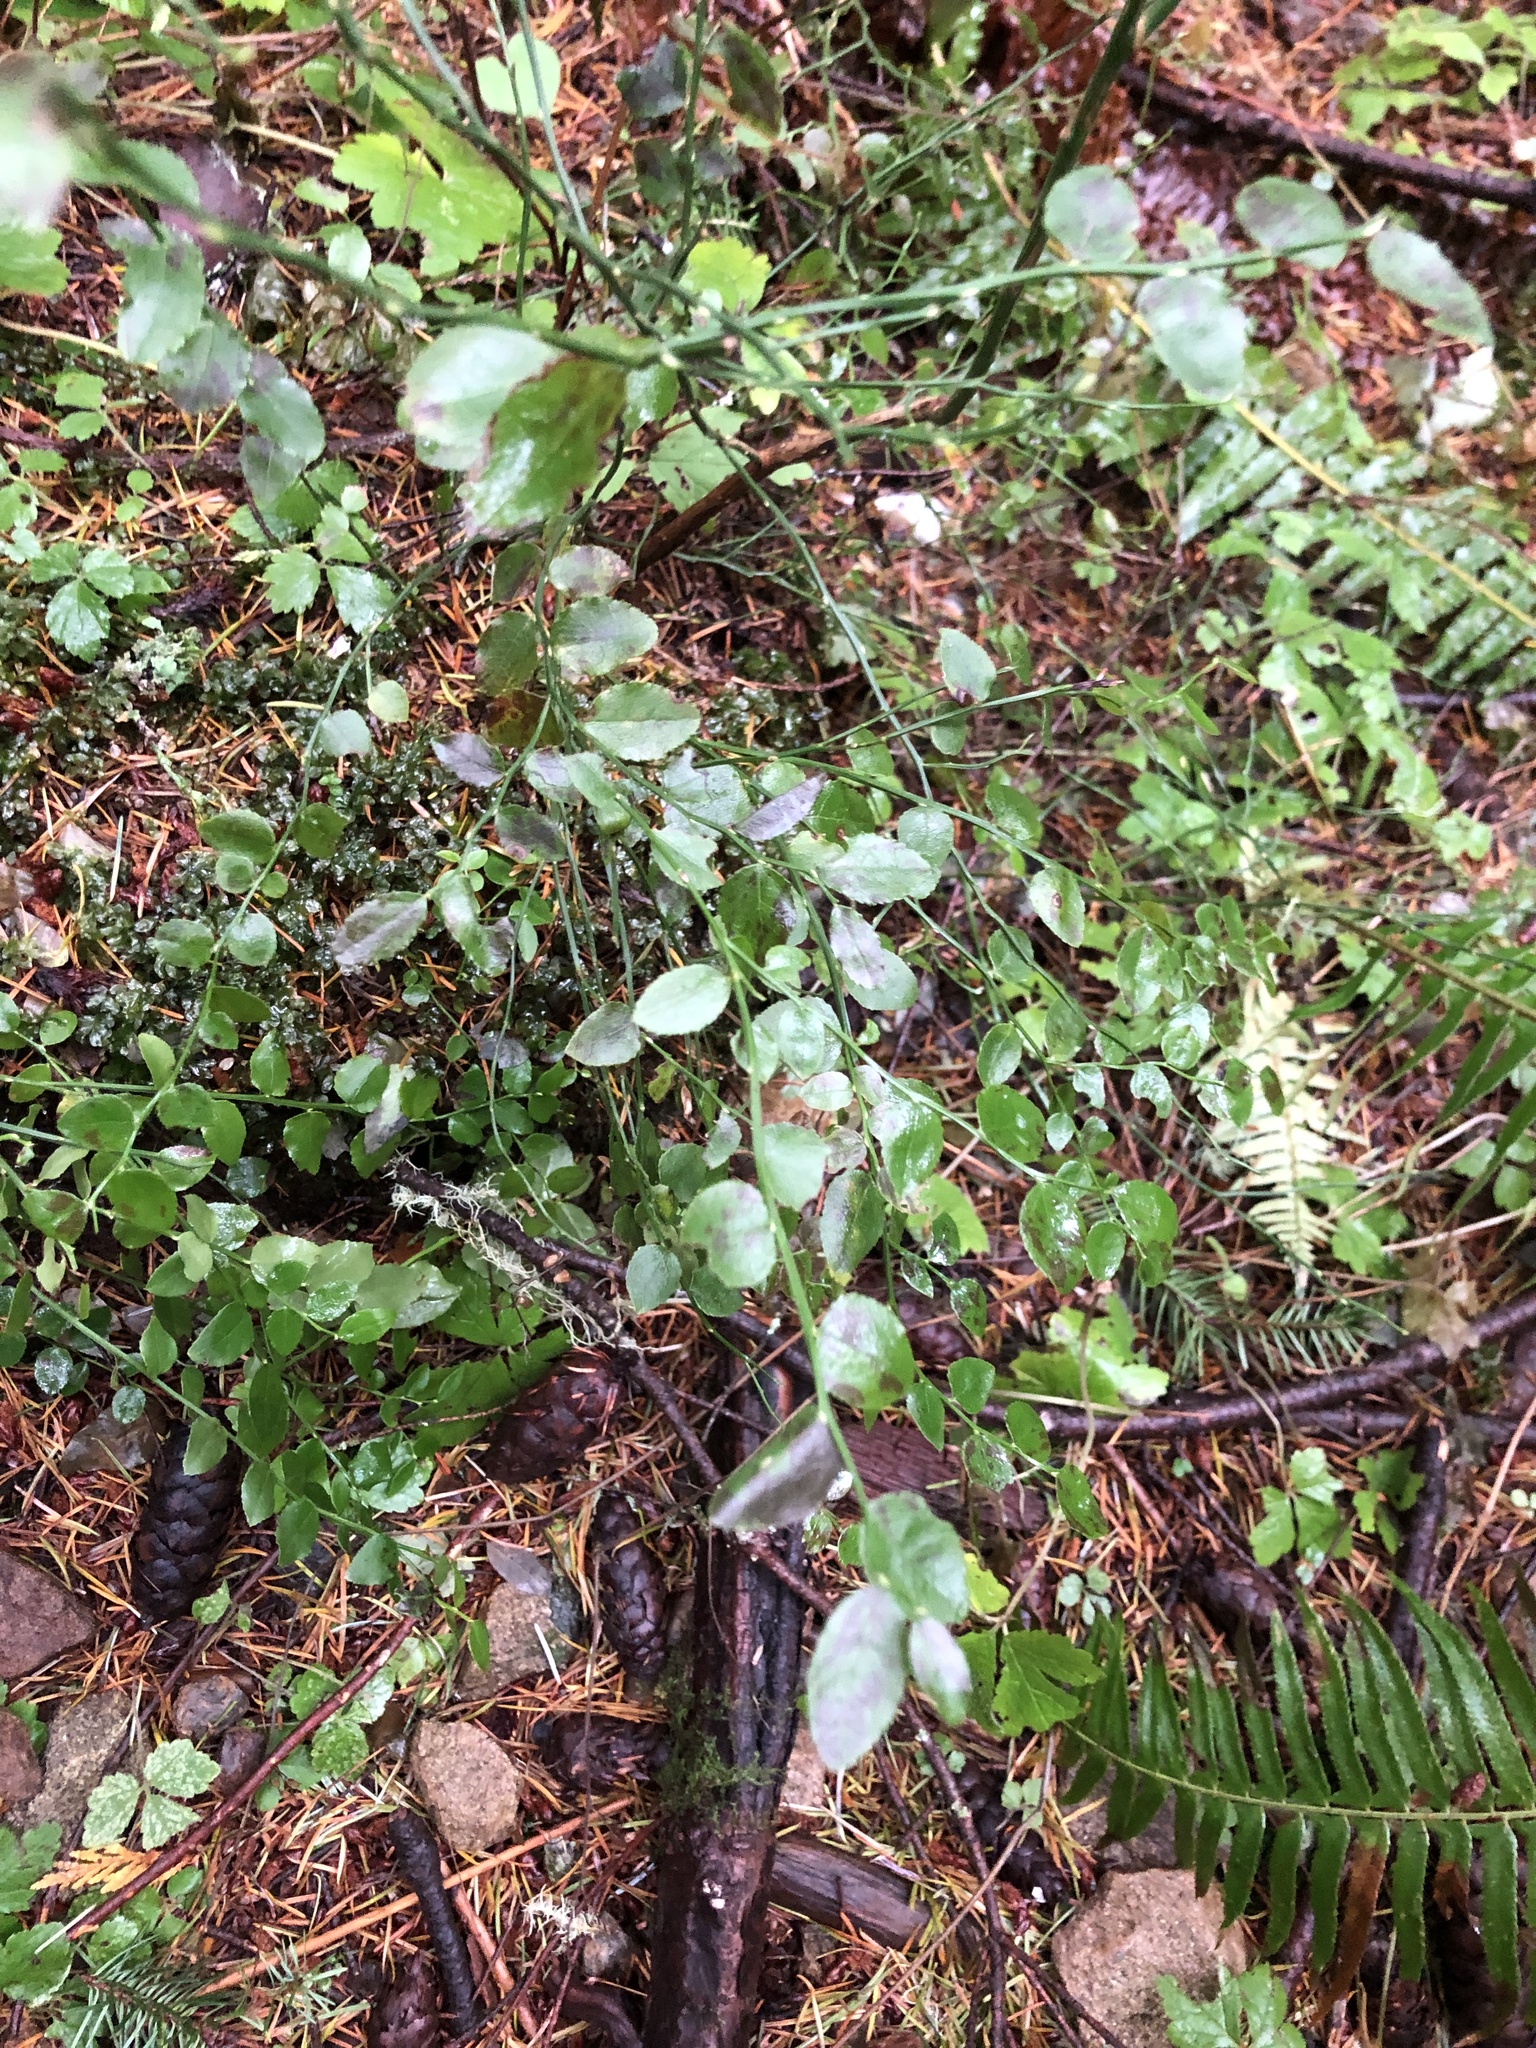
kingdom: Plantae
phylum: Tracheophyta
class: Magnoliopsida
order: Ericales
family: Ericaceae
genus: Vaccinium
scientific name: Vaccinium parvifolium
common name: Red-huckleberry
